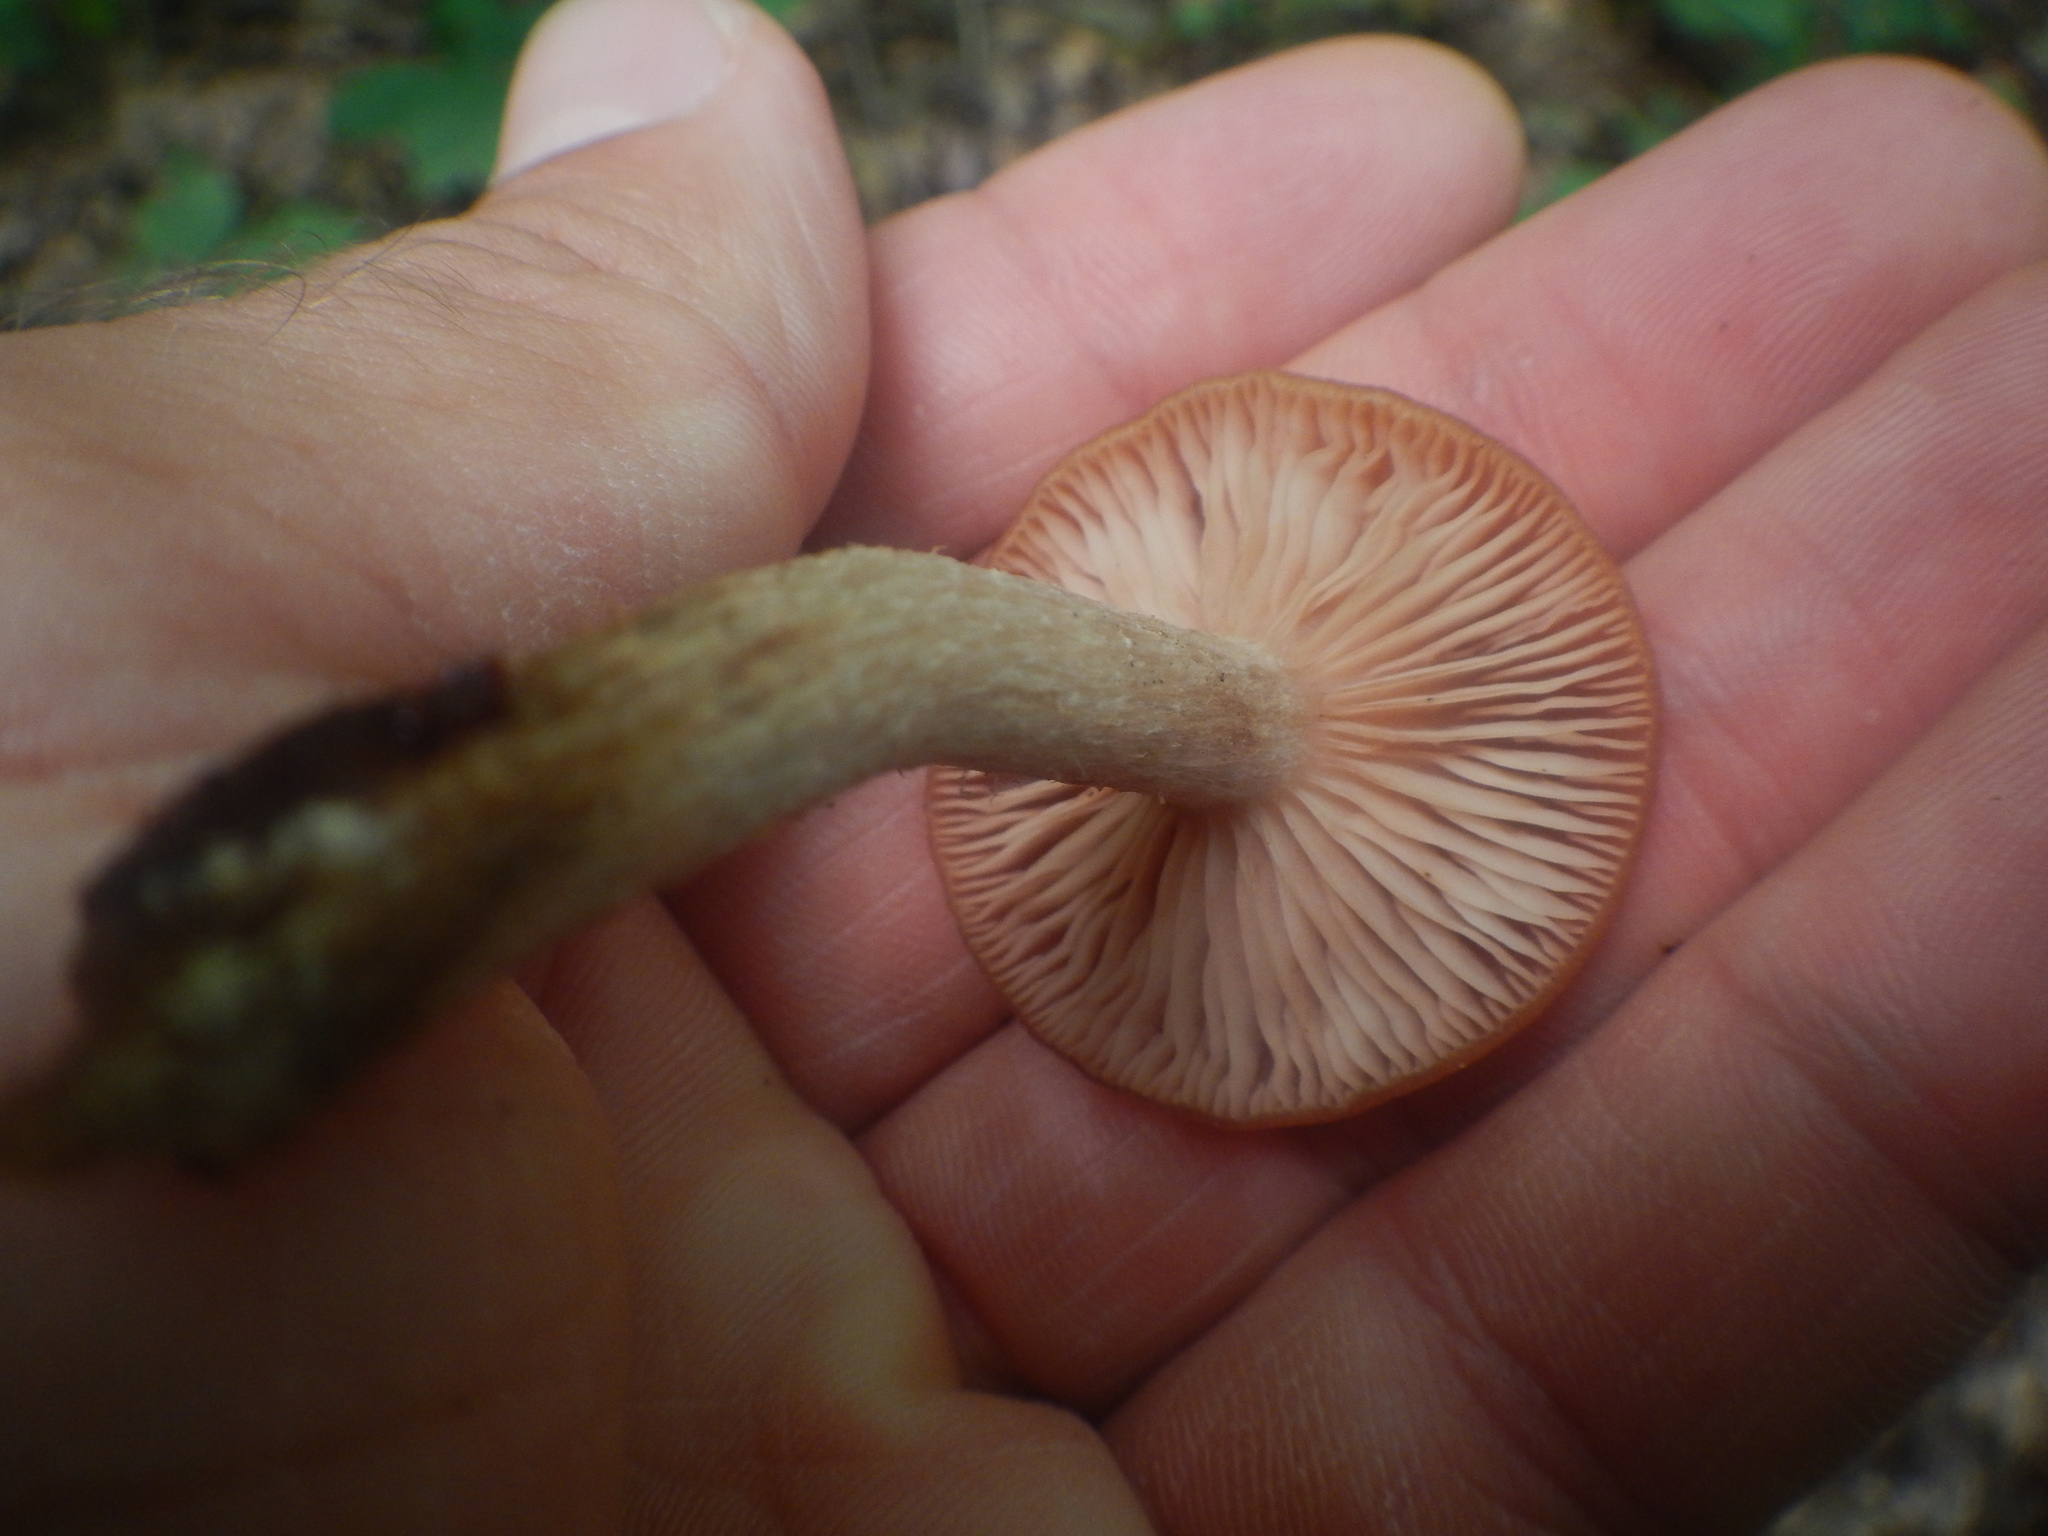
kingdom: Fungi
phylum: Basidiomycota
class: Agaricomycetes
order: Agaricales
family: Physalacriaceae
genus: Desarmillaria
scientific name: Desarmillaria caespitosa
